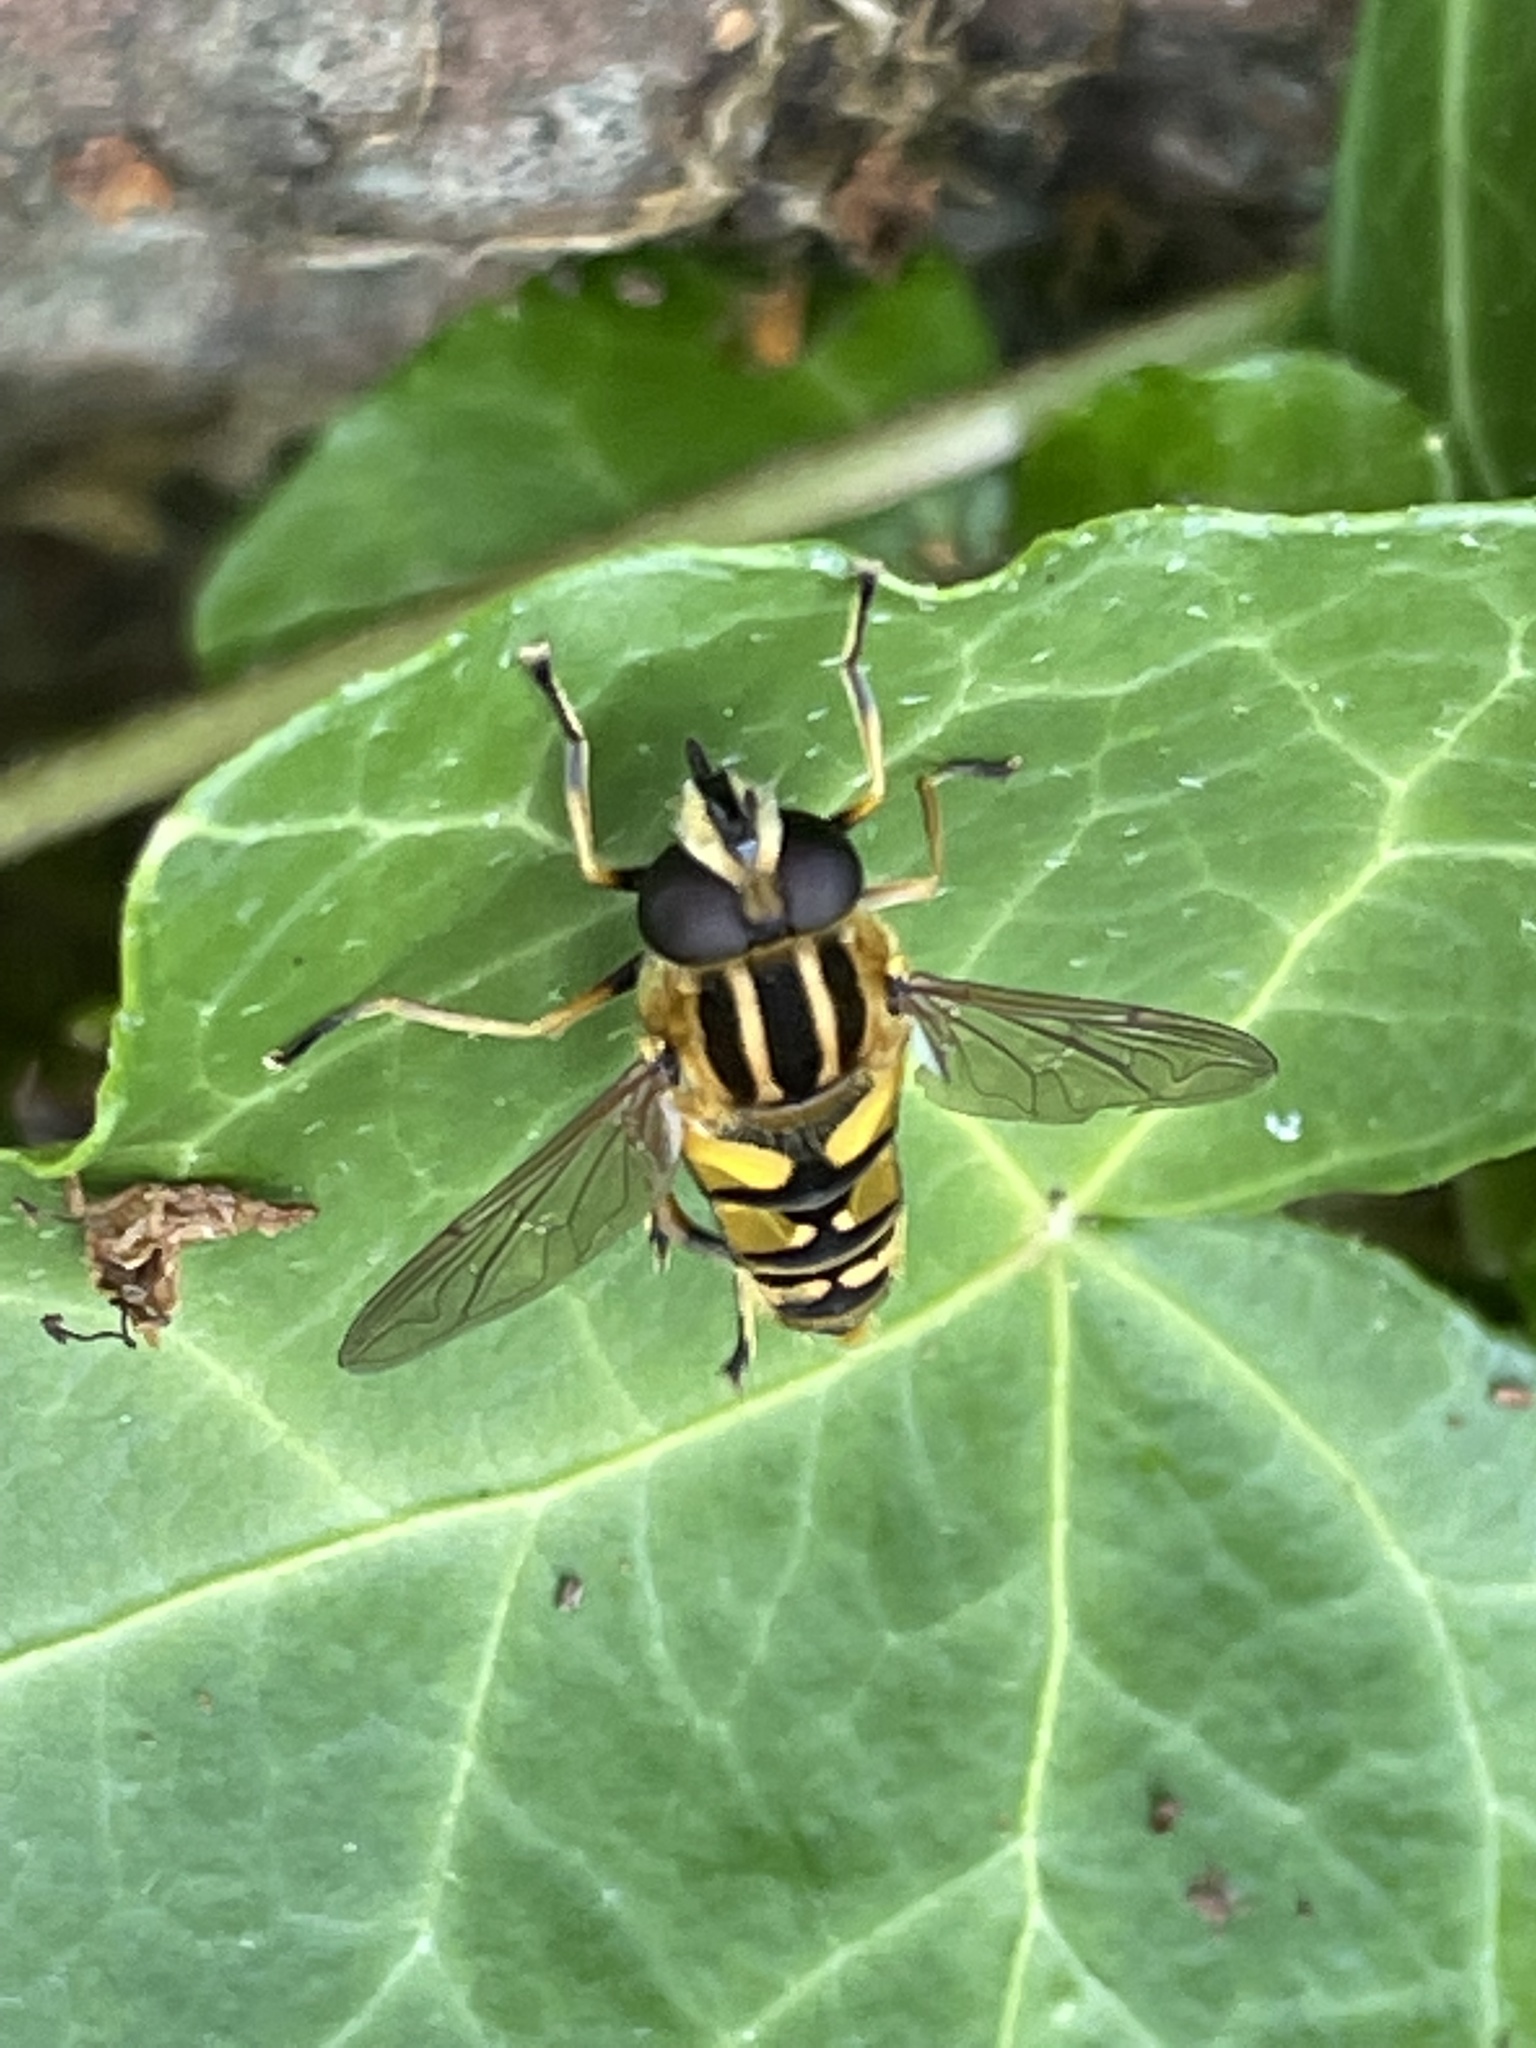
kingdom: Animalia
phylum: Arthropoda
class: Insecta
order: Diptera
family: Syrphidae
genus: Helophilus
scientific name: Helophilus pendulus
